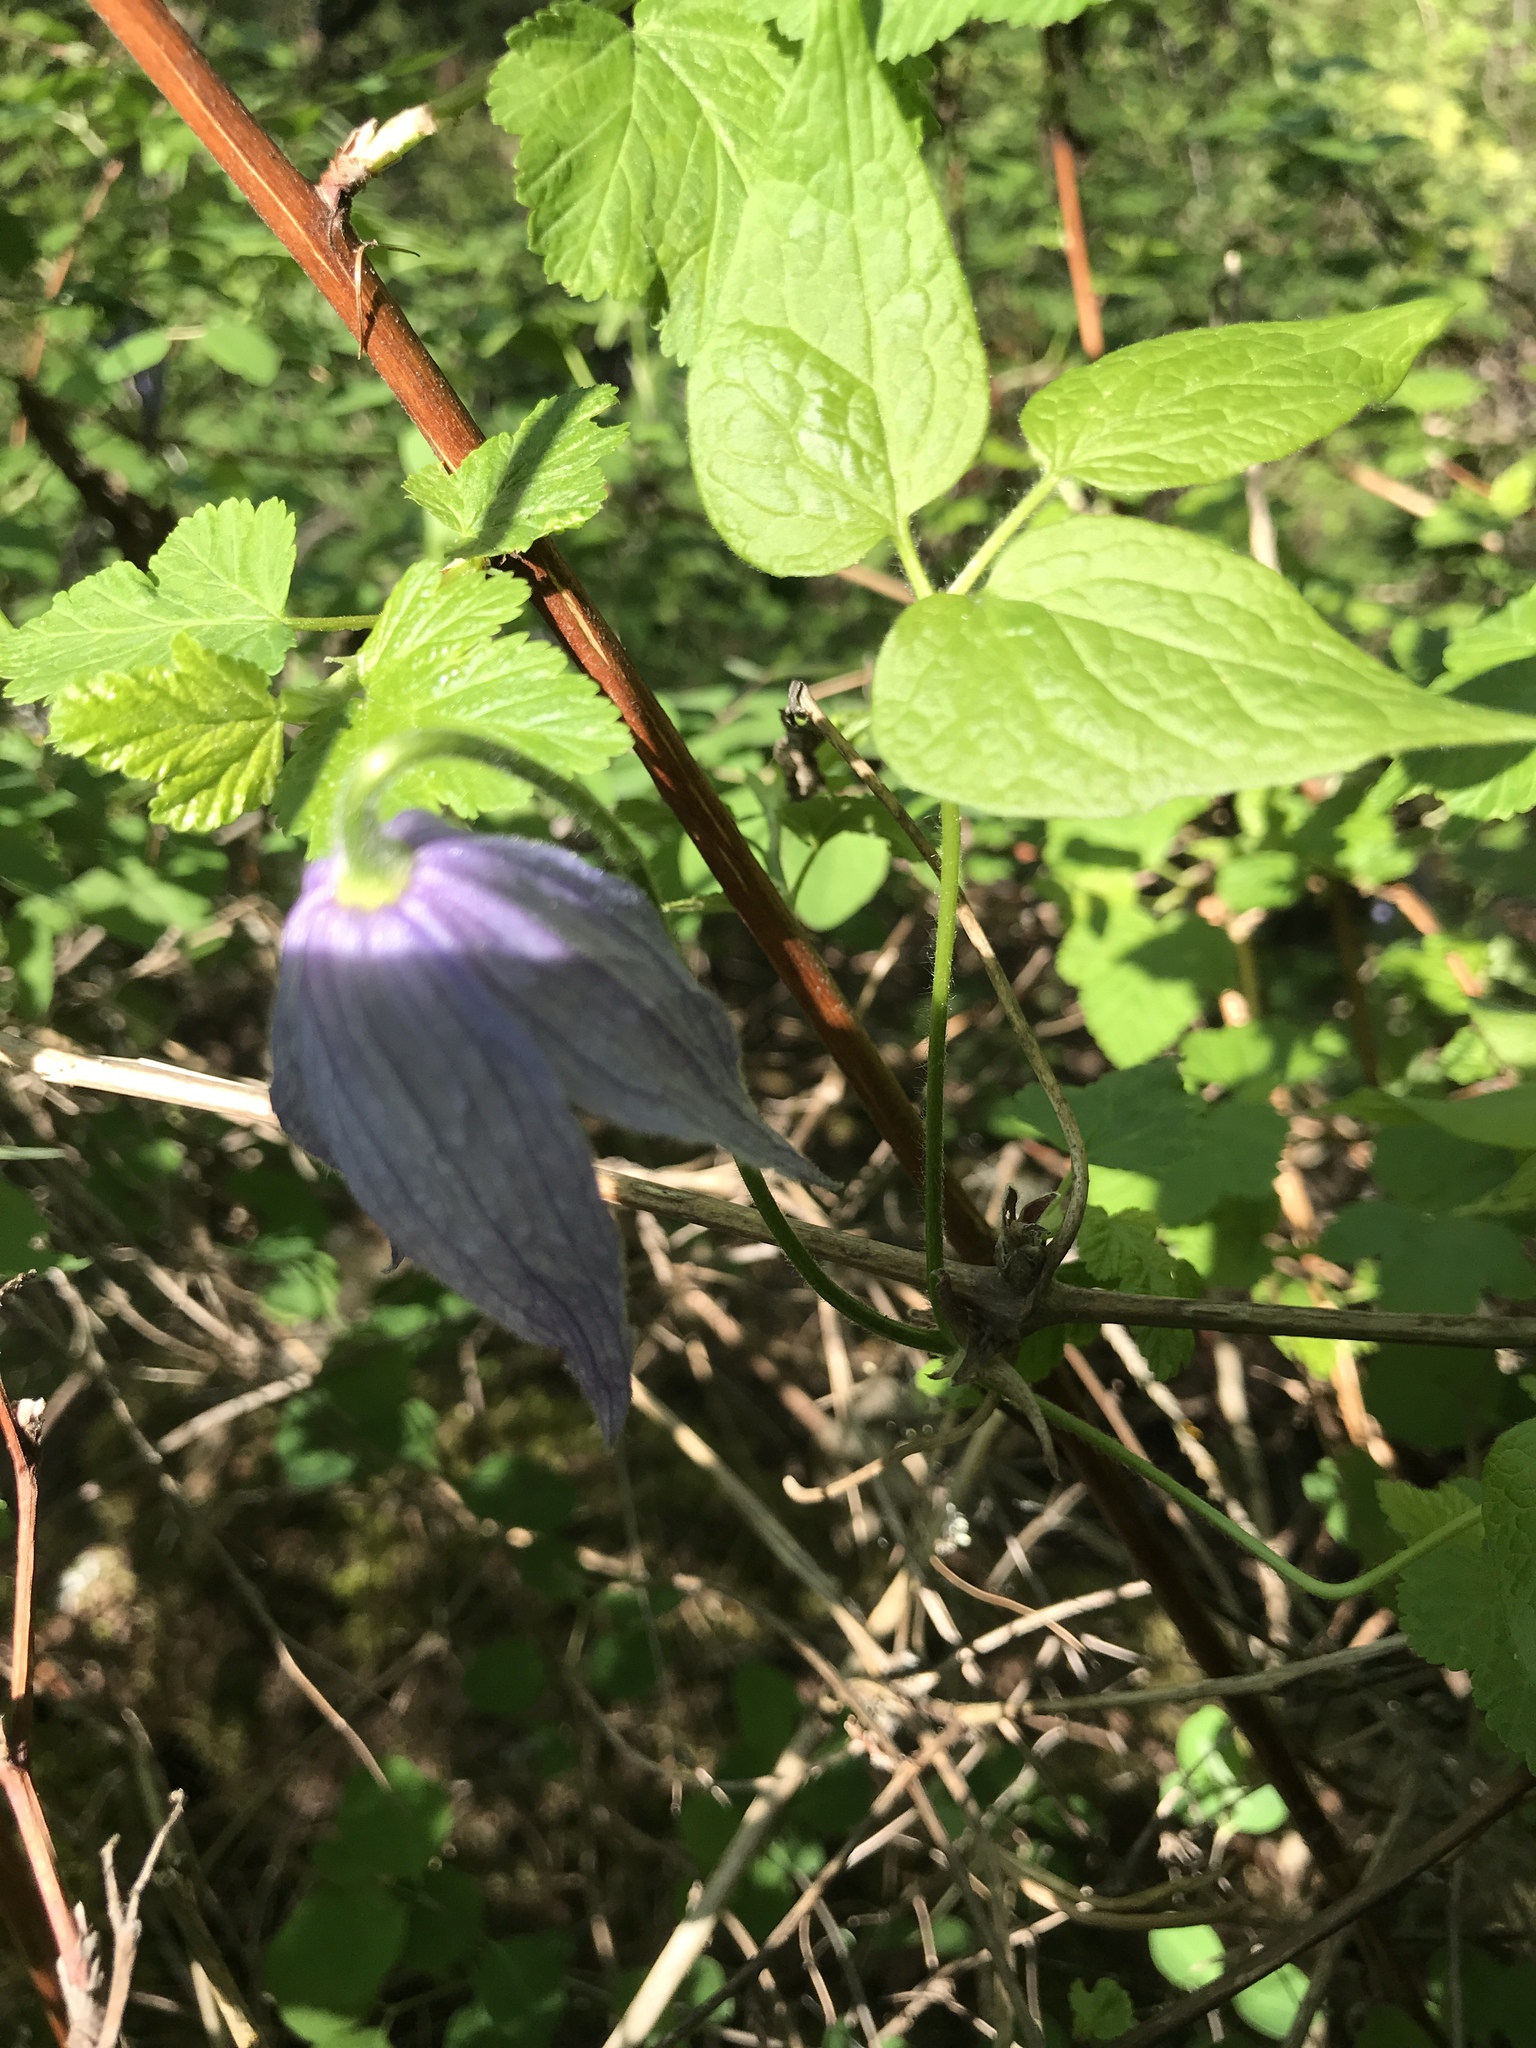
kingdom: Plantae
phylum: Tracheophyta
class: Magnoliopsida
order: Ranunculales
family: Ranunculaceae
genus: Clematis
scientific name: Clematis occidentalis
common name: Purple clematis
